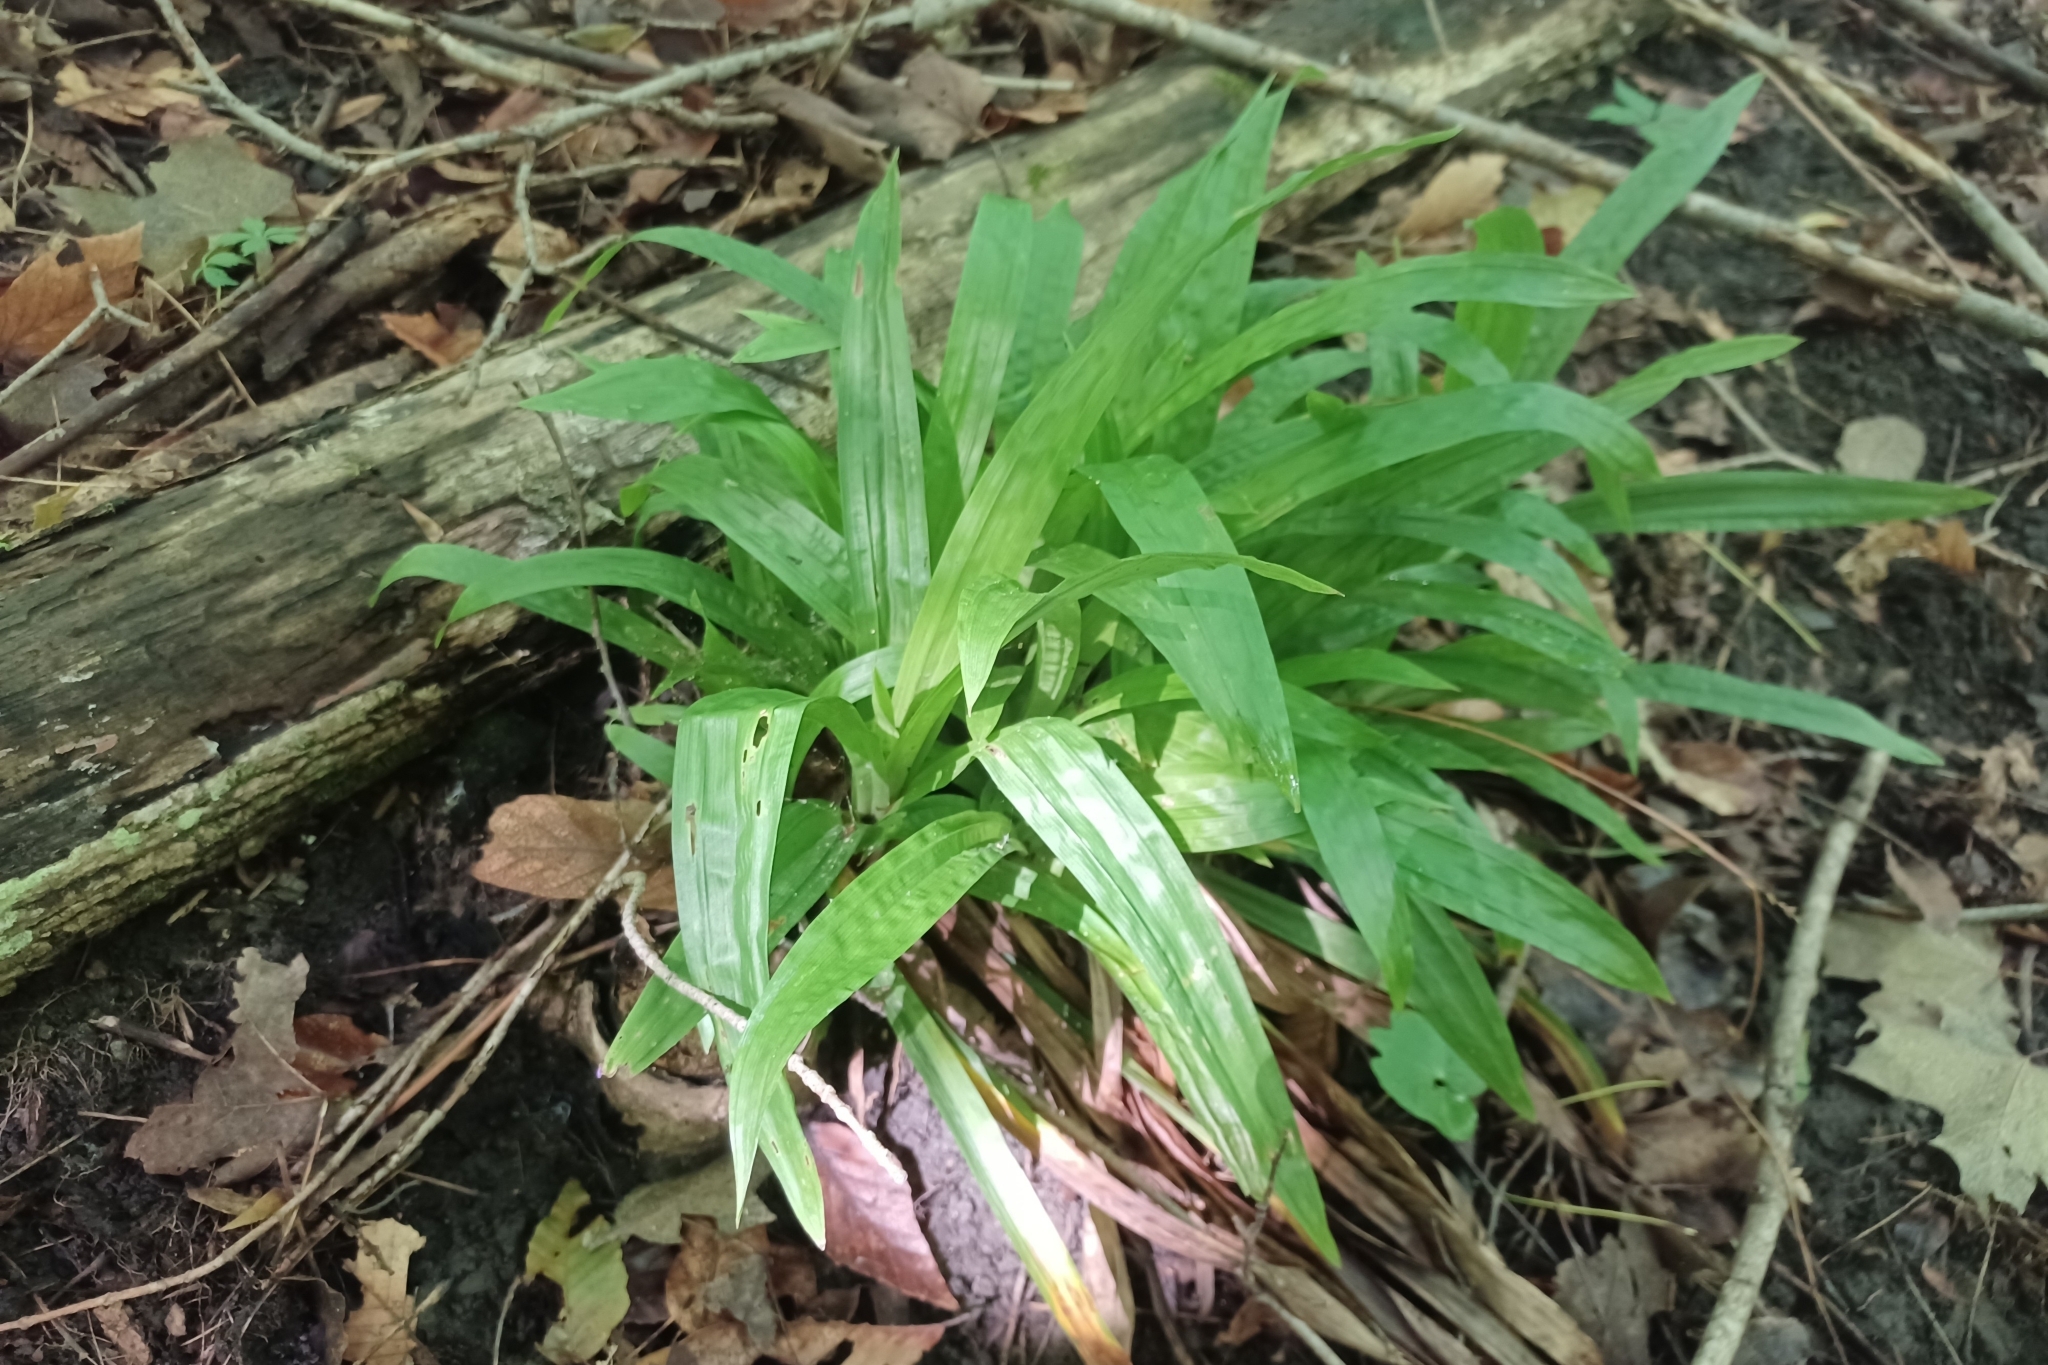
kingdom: Plantae
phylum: Tracheophyta
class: Liliopsida
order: Poales
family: Cyperaceae
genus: Carex
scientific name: Carex plantaginea
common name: Plantain-leaved sedge
